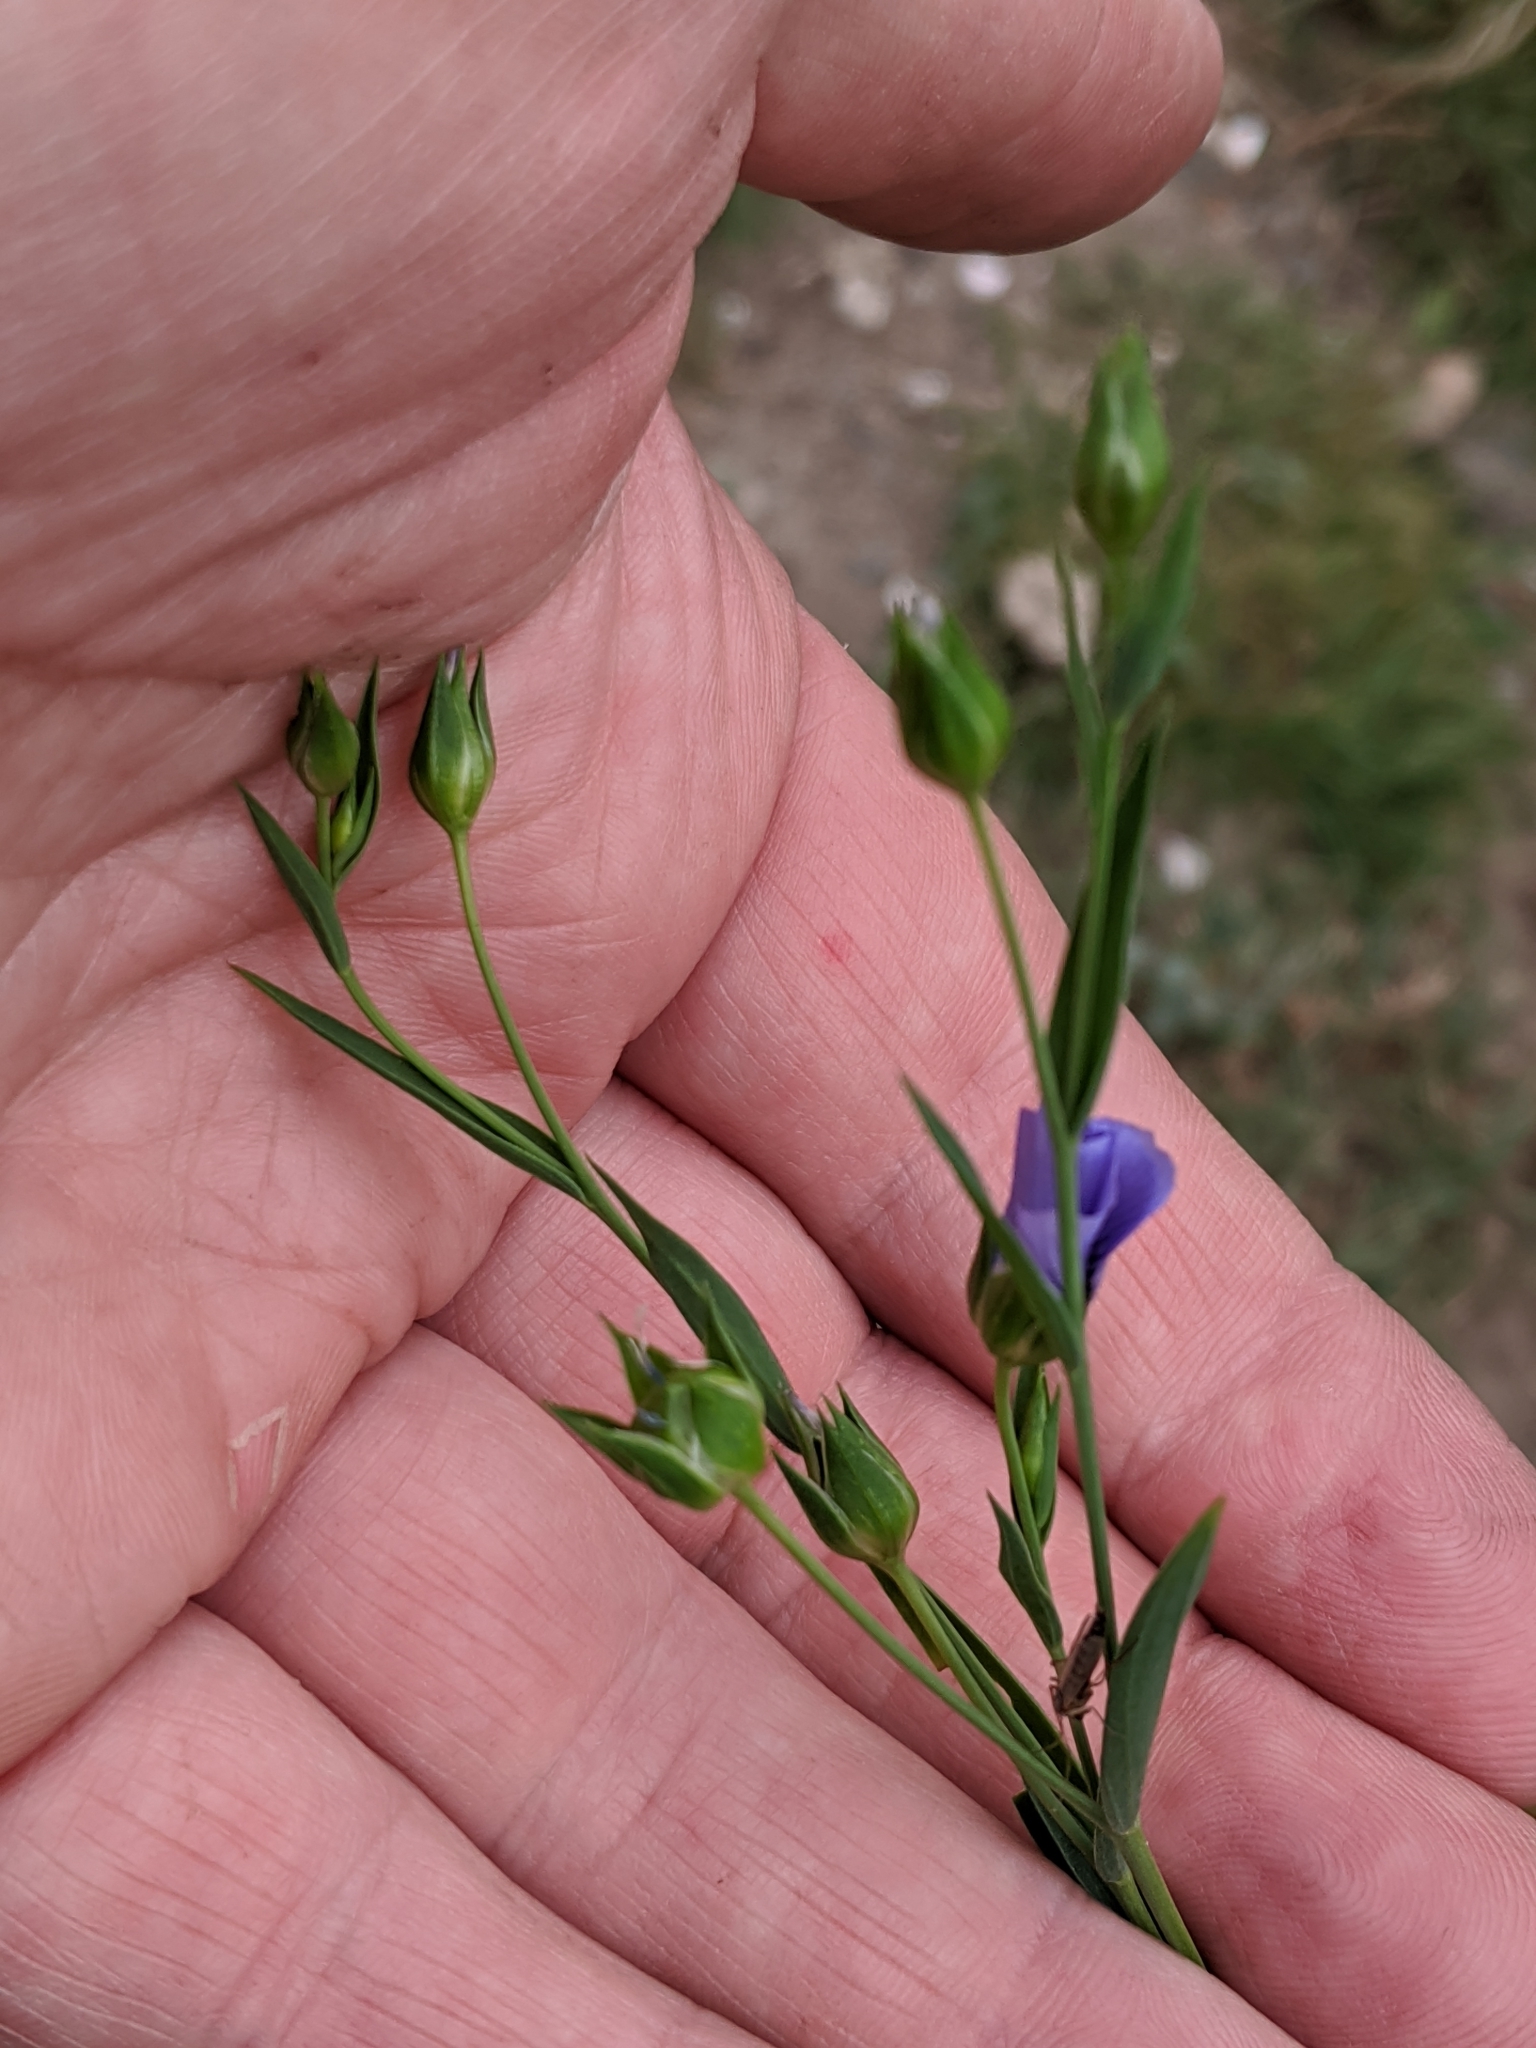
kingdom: Plantae
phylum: Tracheophyta
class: Magnoliopsida
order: Malpighiales
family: Linaceae
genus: Linum
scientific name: Linum usitatissimum
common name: Flax
